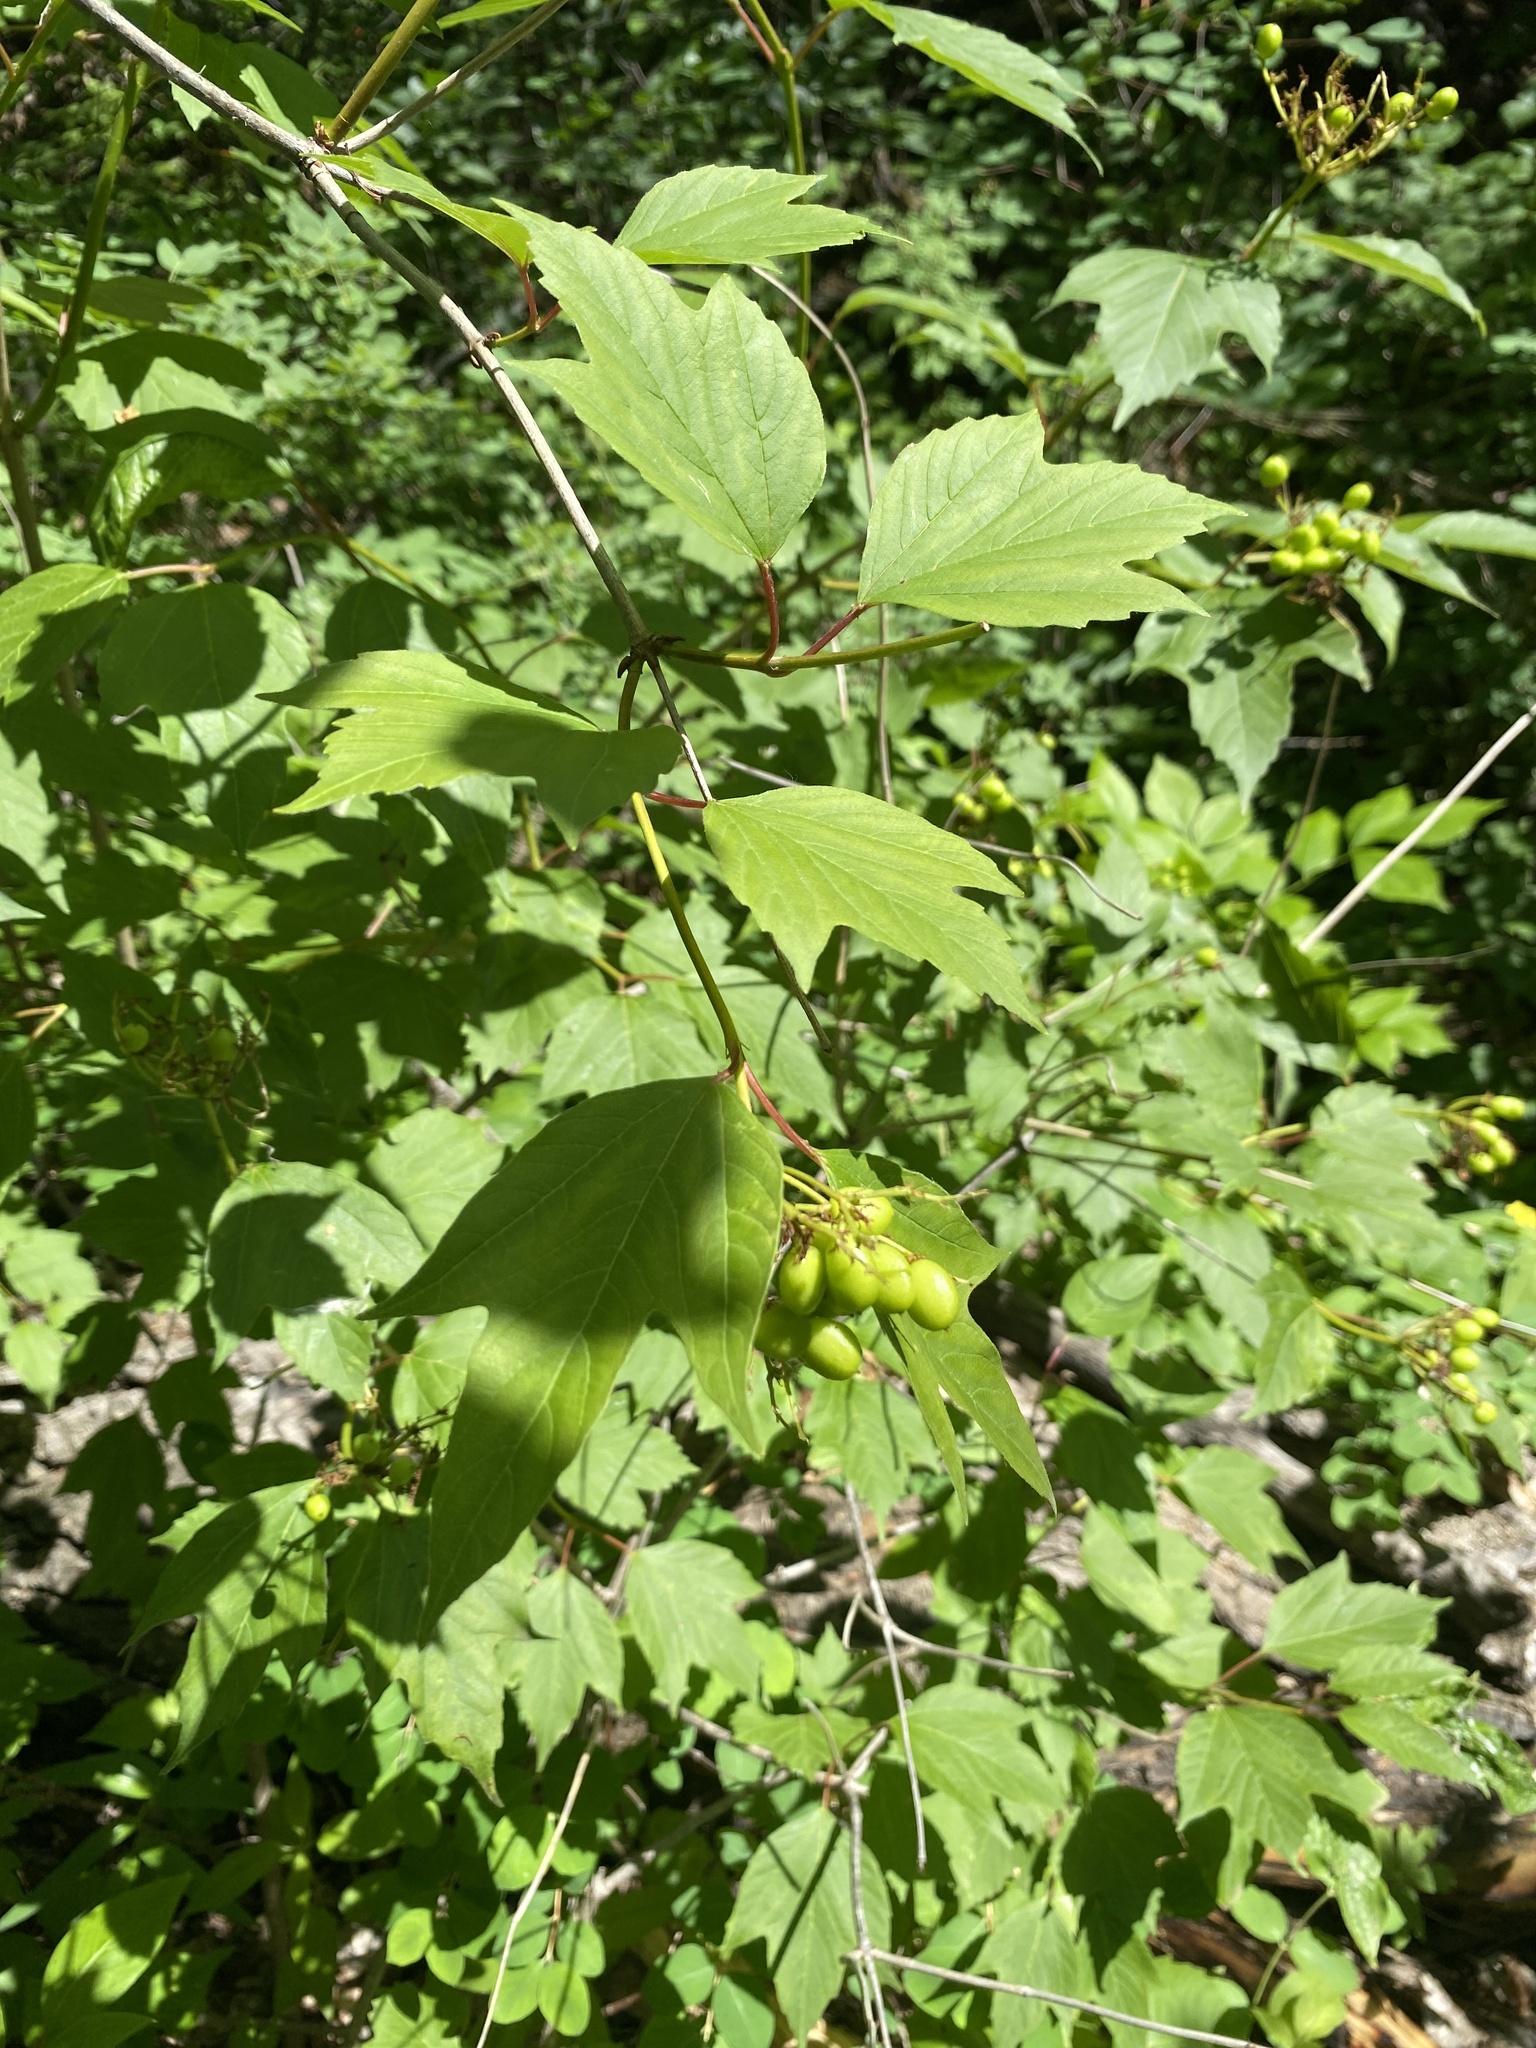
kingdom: Plantae
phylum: Tracheophyta
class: Magnoliopsida
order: Dipsacales
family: Viburnaceae
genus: Viburnum
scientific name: Viburnum opulus
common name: Guelder-rose
